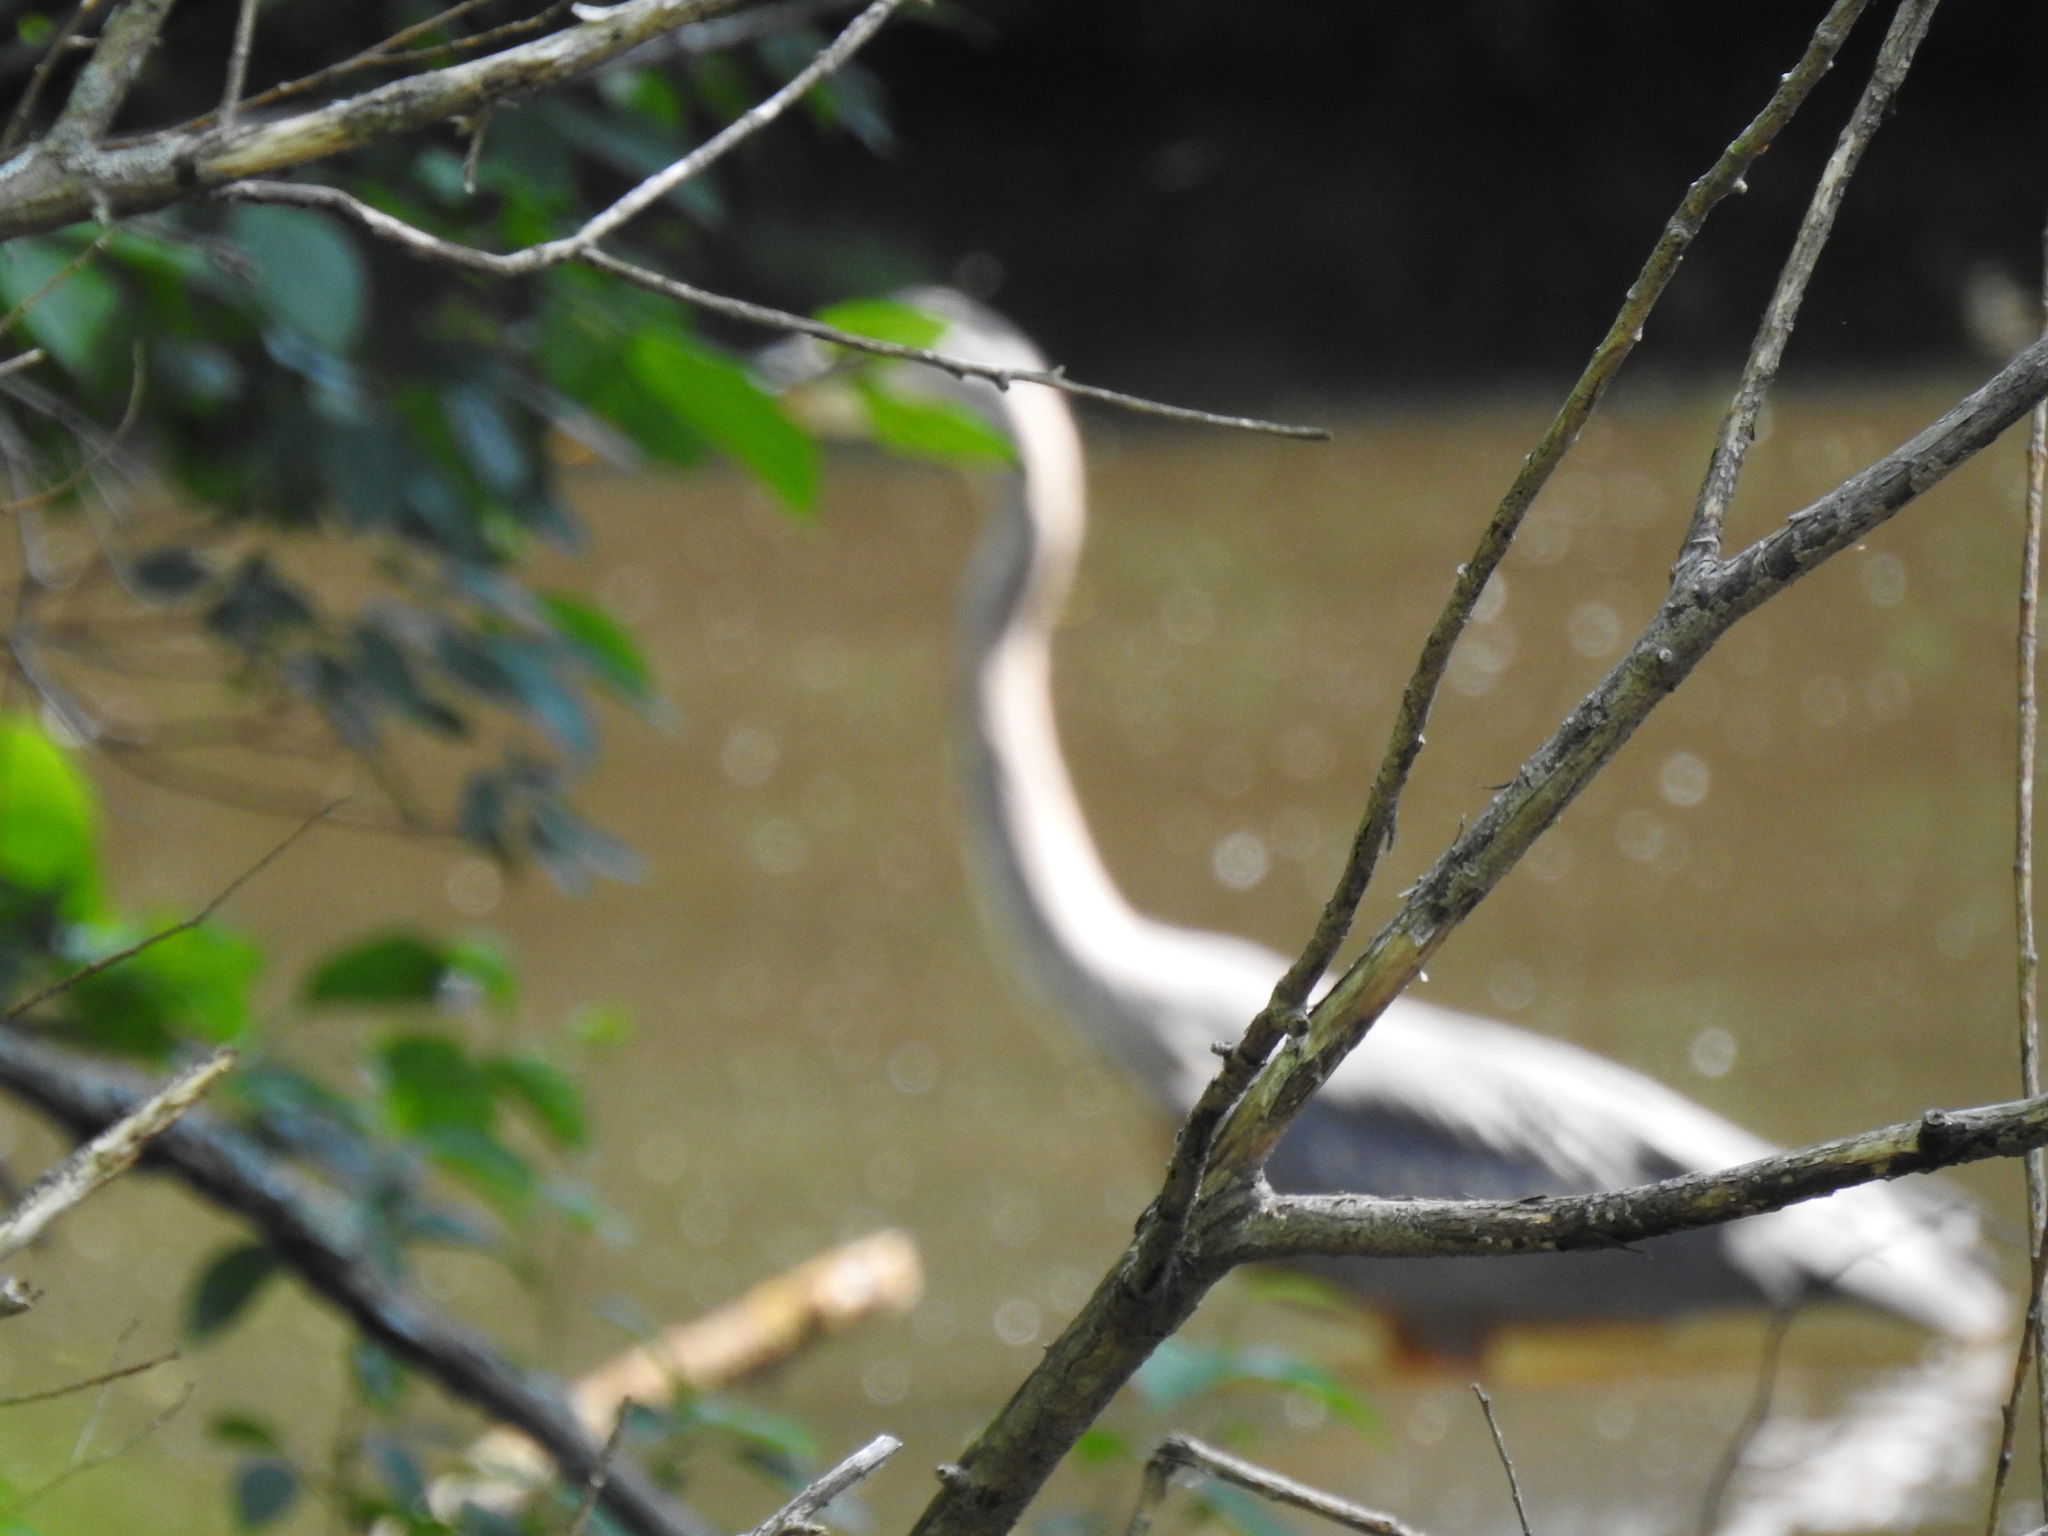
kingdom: Animalia
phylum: Chordata
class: Aves
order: Pelecaniformes
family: Ardeidae
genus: Ardea
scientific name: Ardea herodias
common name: Great blue heron
